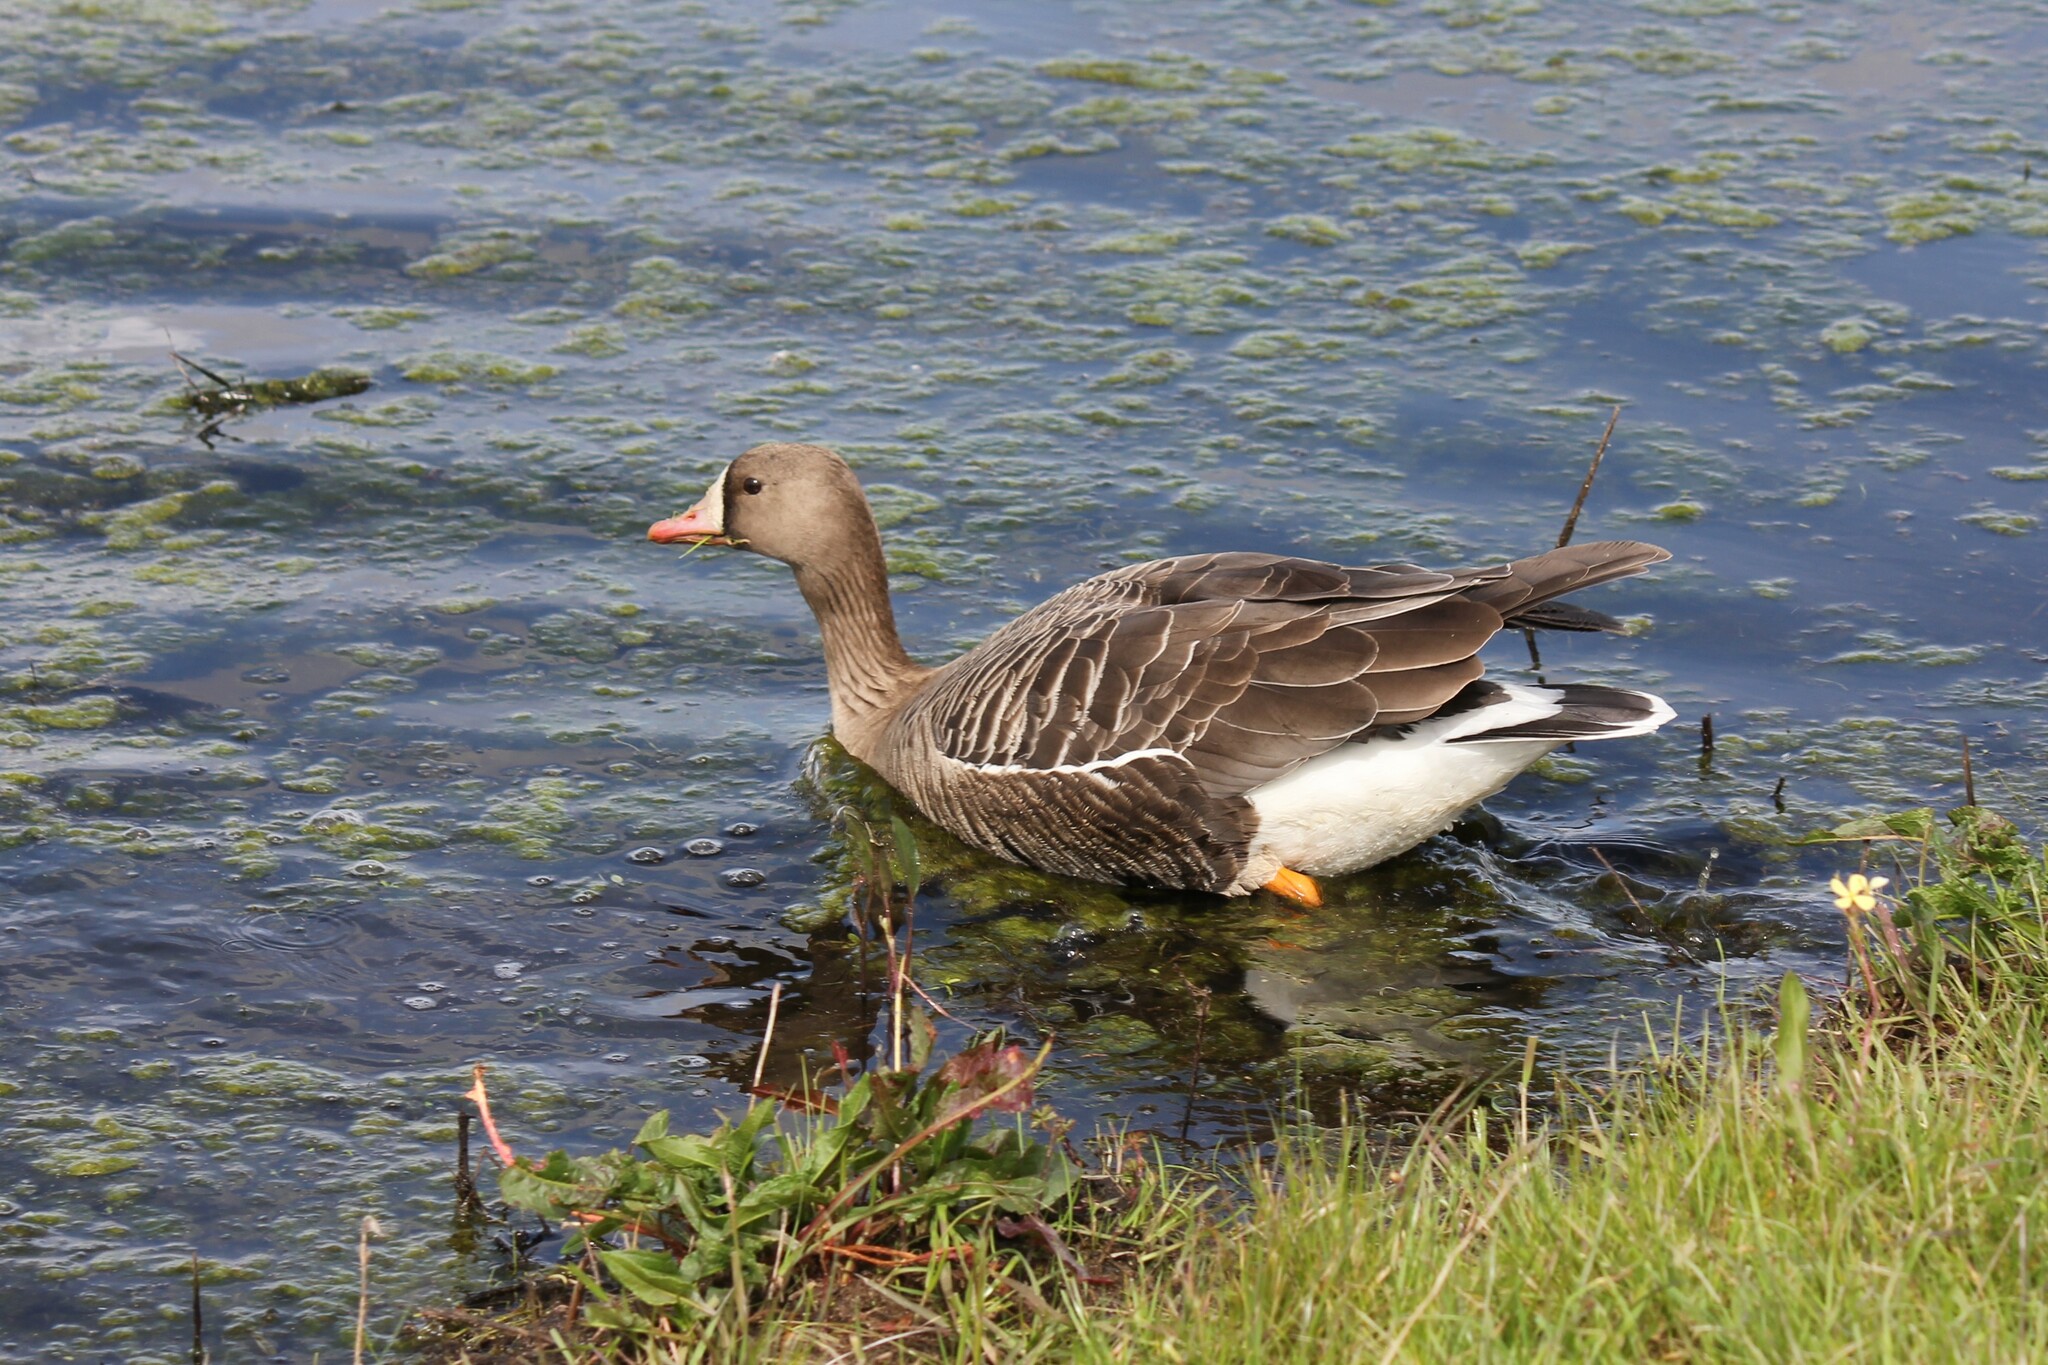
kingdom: Animalia
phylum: Chordata
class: Aves
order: Anseriformes
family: Anatidae
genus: Anser
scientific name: Anser albifrons
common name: Greater white-fronted goose
